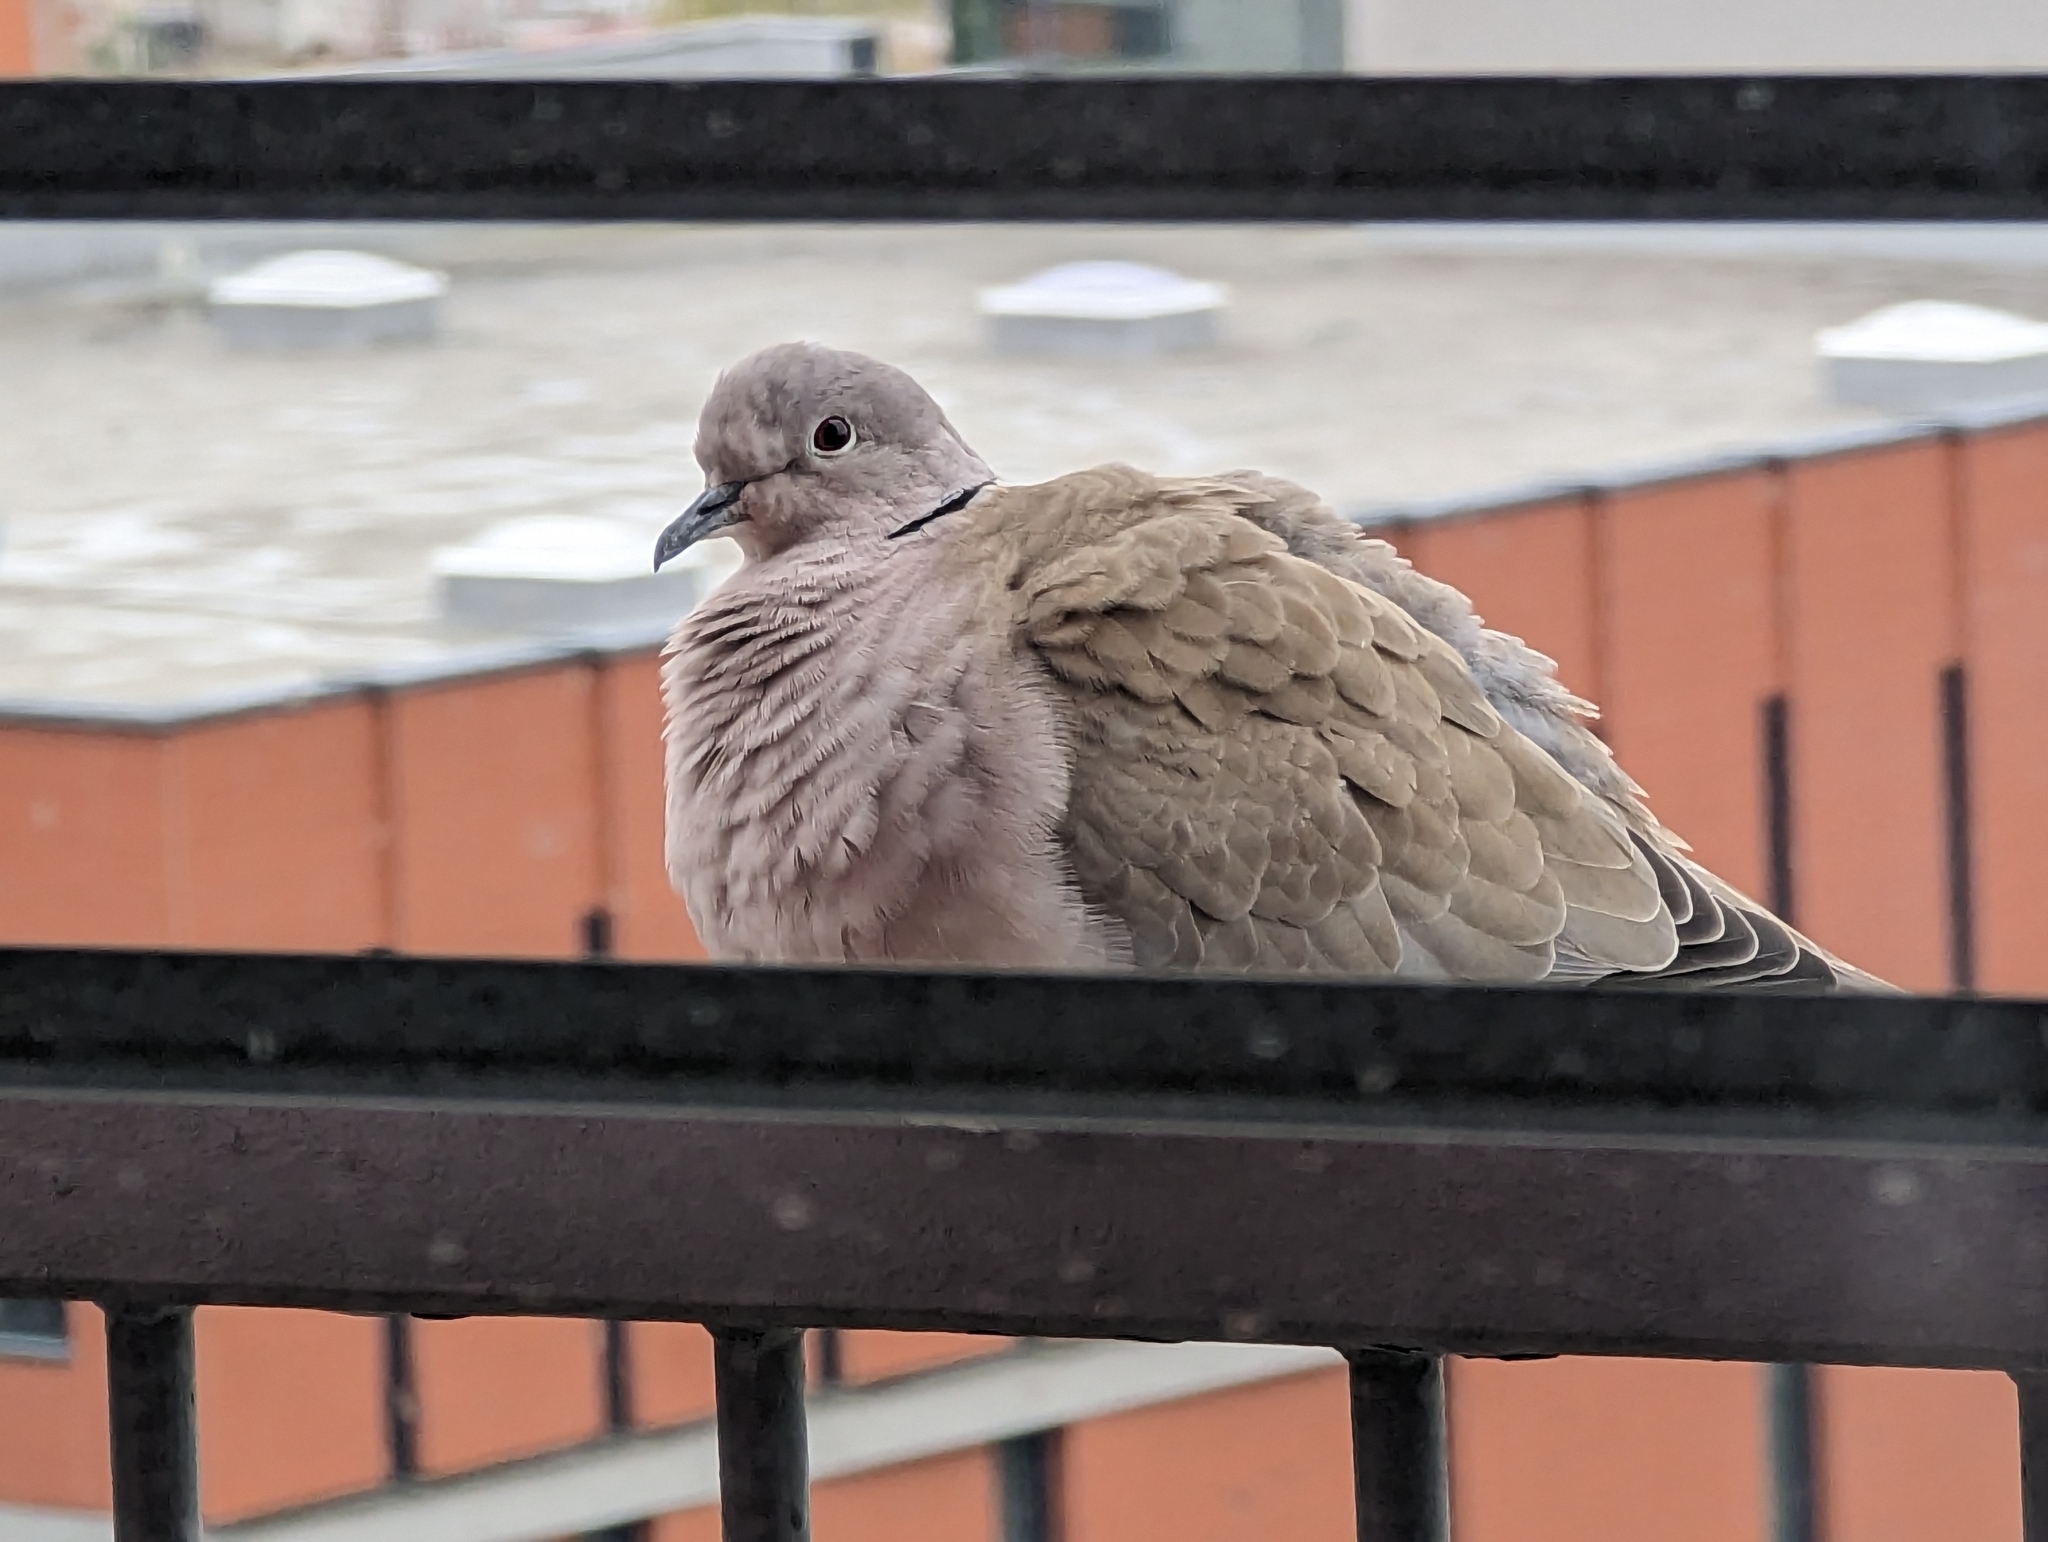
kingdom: Animalia
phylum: Chordata
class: Aves
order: Columbiformes
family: Columbidae
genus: Streptopelia
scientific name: Streptopelia decaocto
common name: Eurasian collared dove
